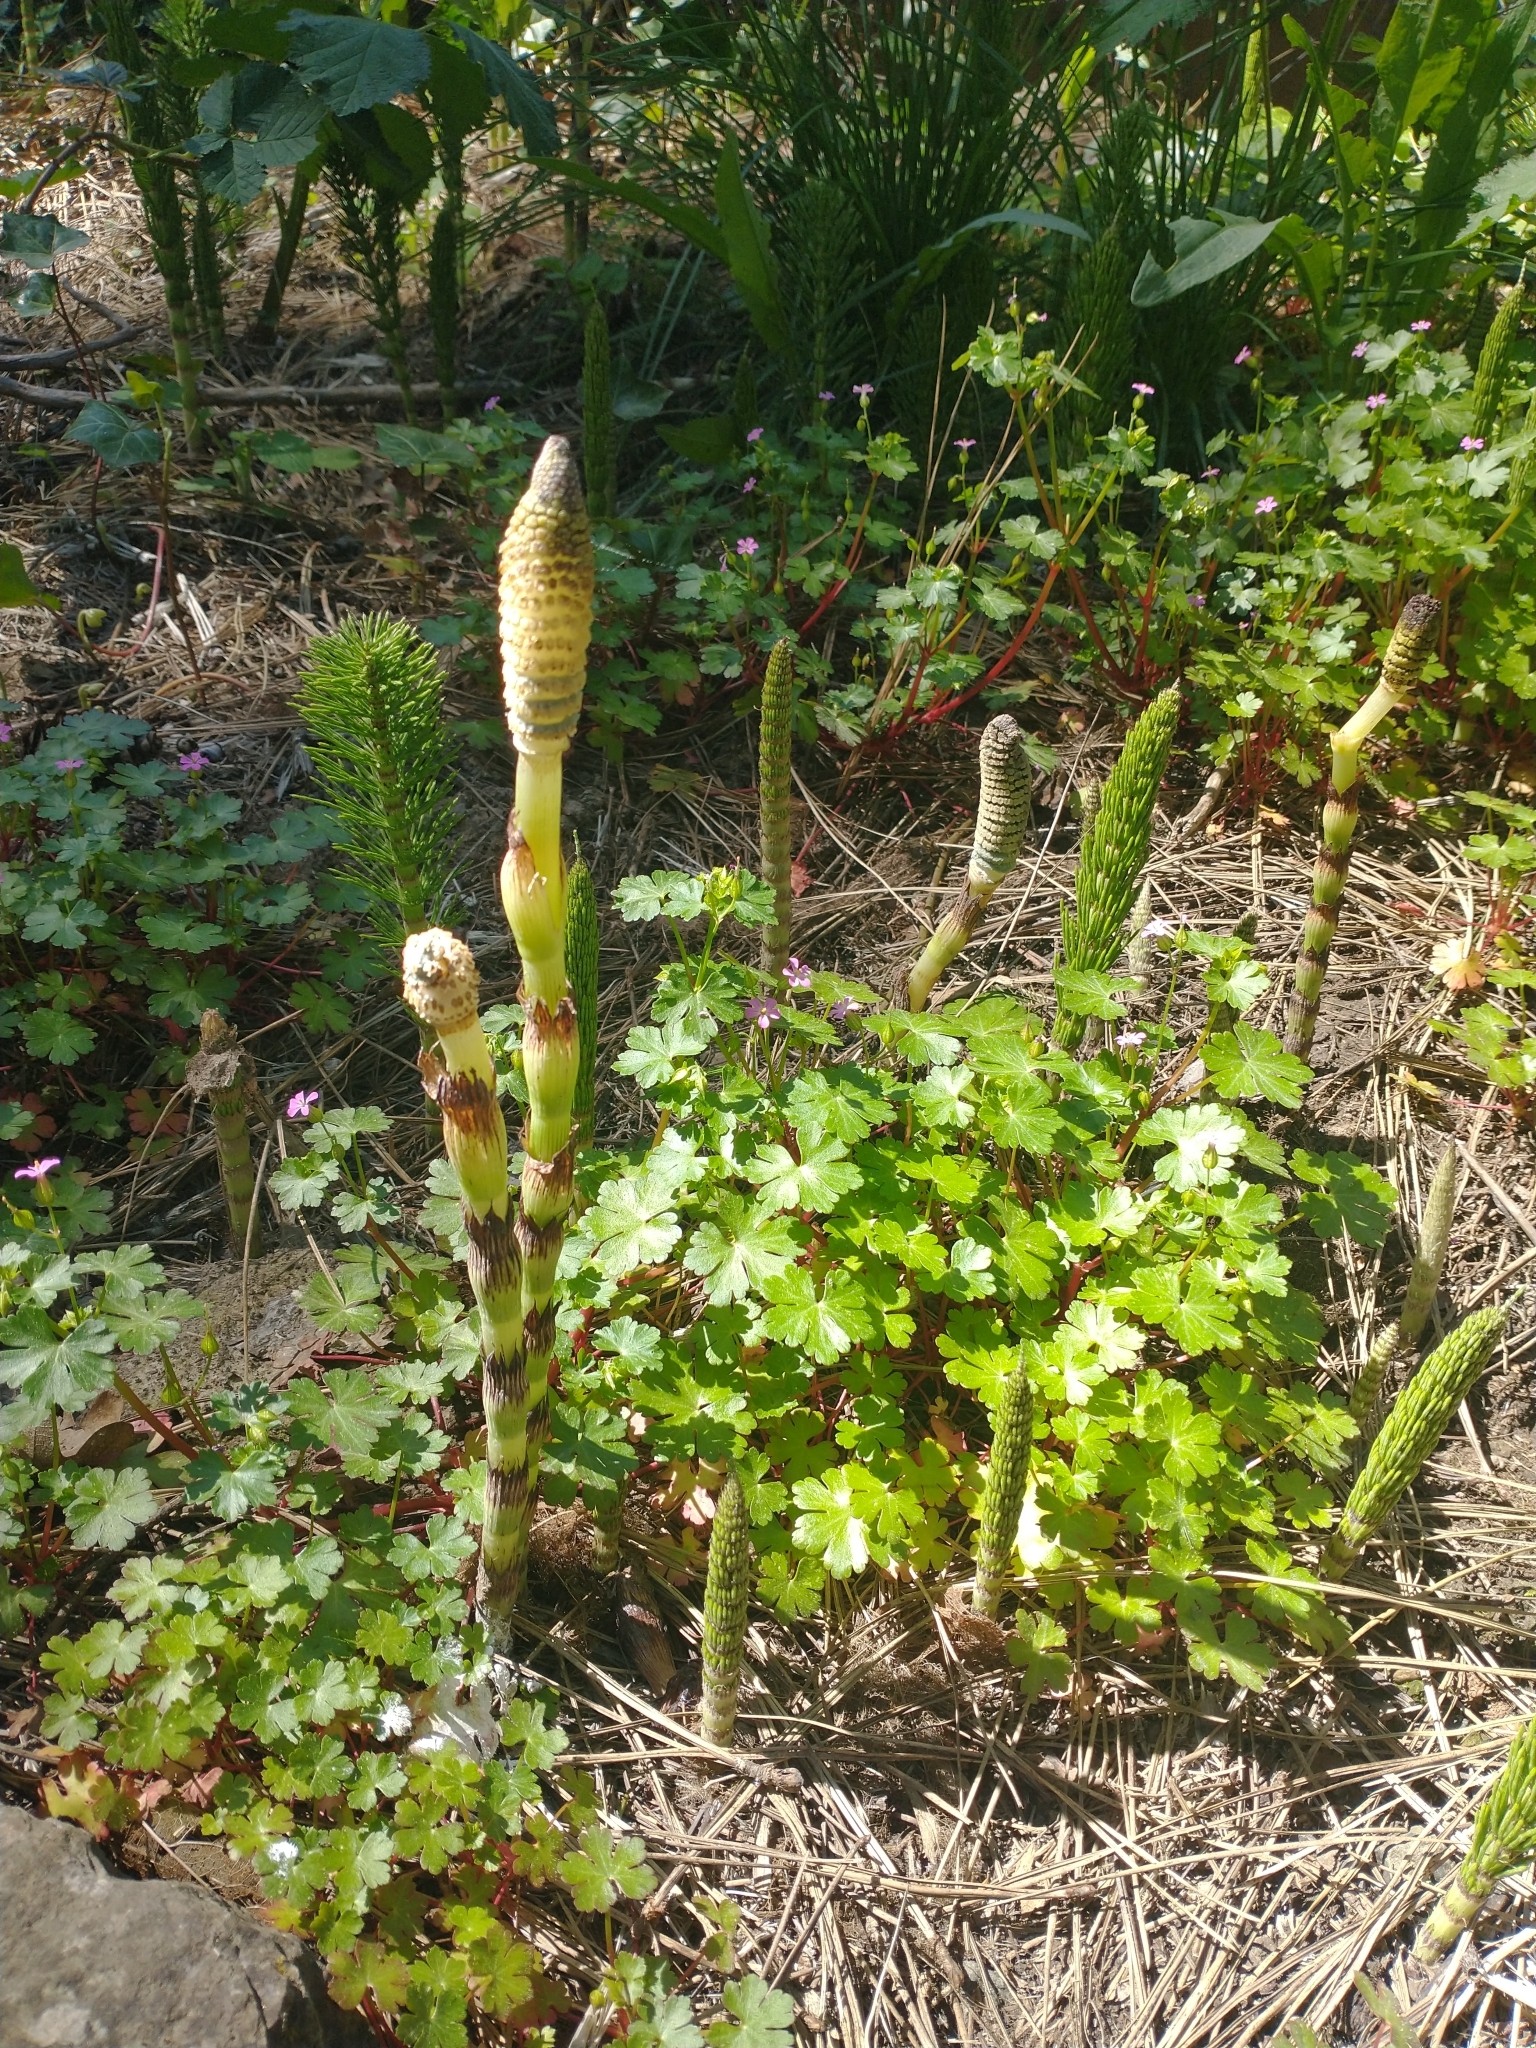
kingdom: Plantae
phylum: Tracheophyta
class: Polypodiopsida
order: Equisetales
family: Equisetaceae
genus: Equisetum
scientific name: Equisetum braunii
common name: Braun's horsetail
